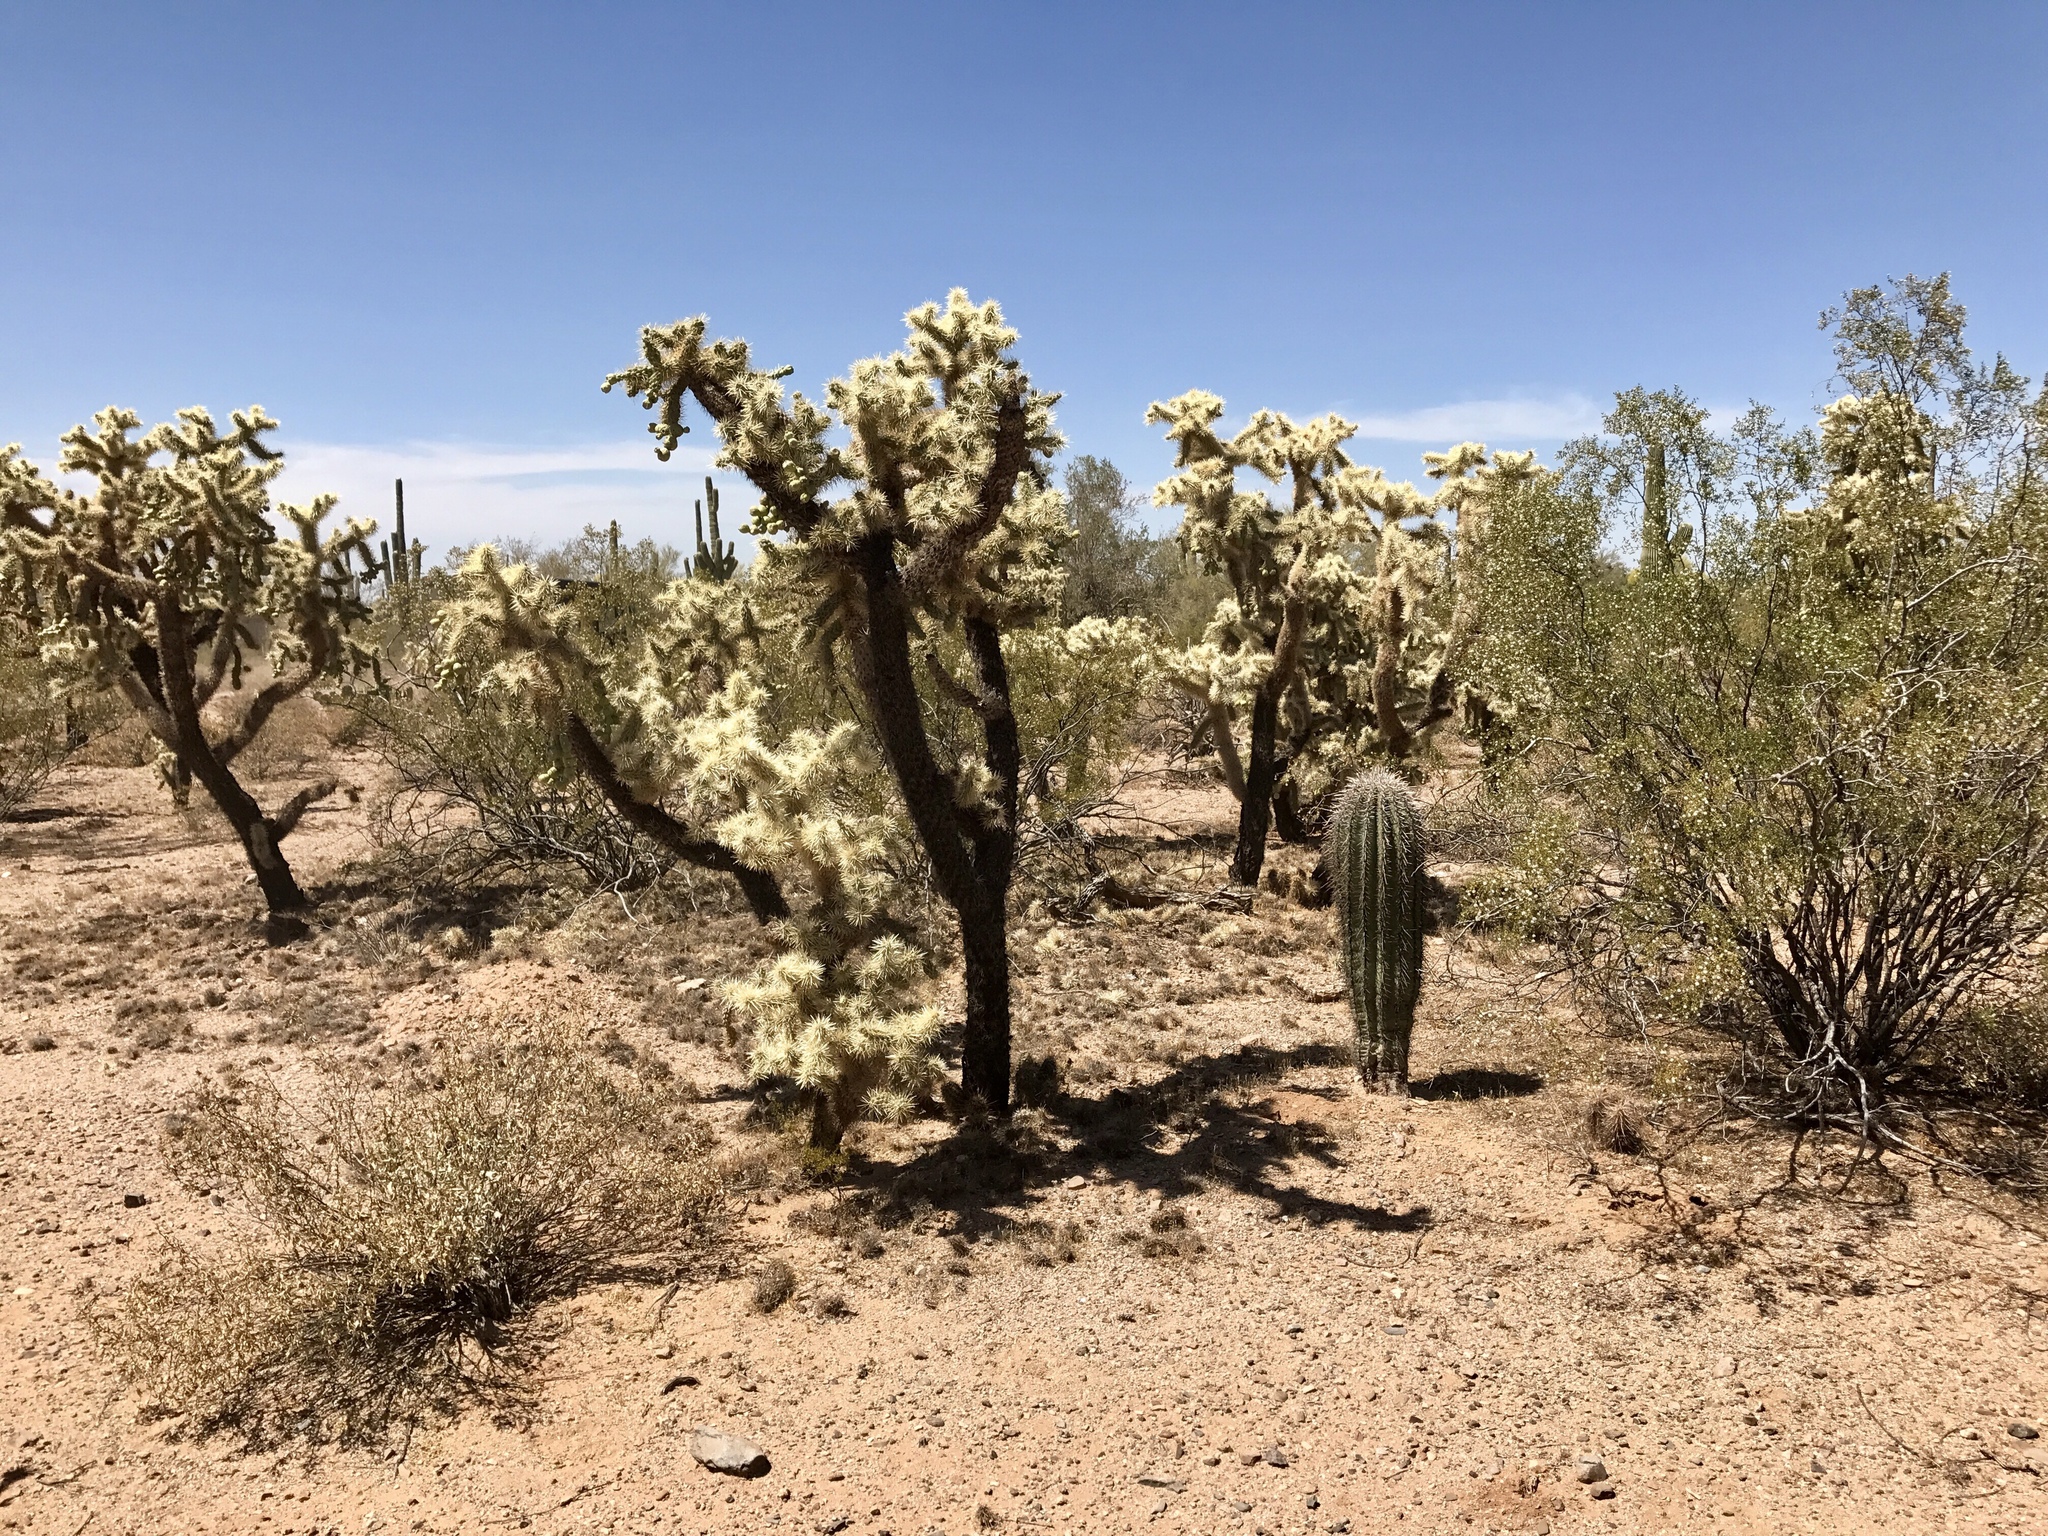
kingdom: Plantae
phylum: Tracheophyta
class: Magnoliopsida
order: Caryophyllales
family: Cactaceae
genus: Cylindropuntia
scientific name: Cylindropuntia fulgida
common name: Jumping cholla
